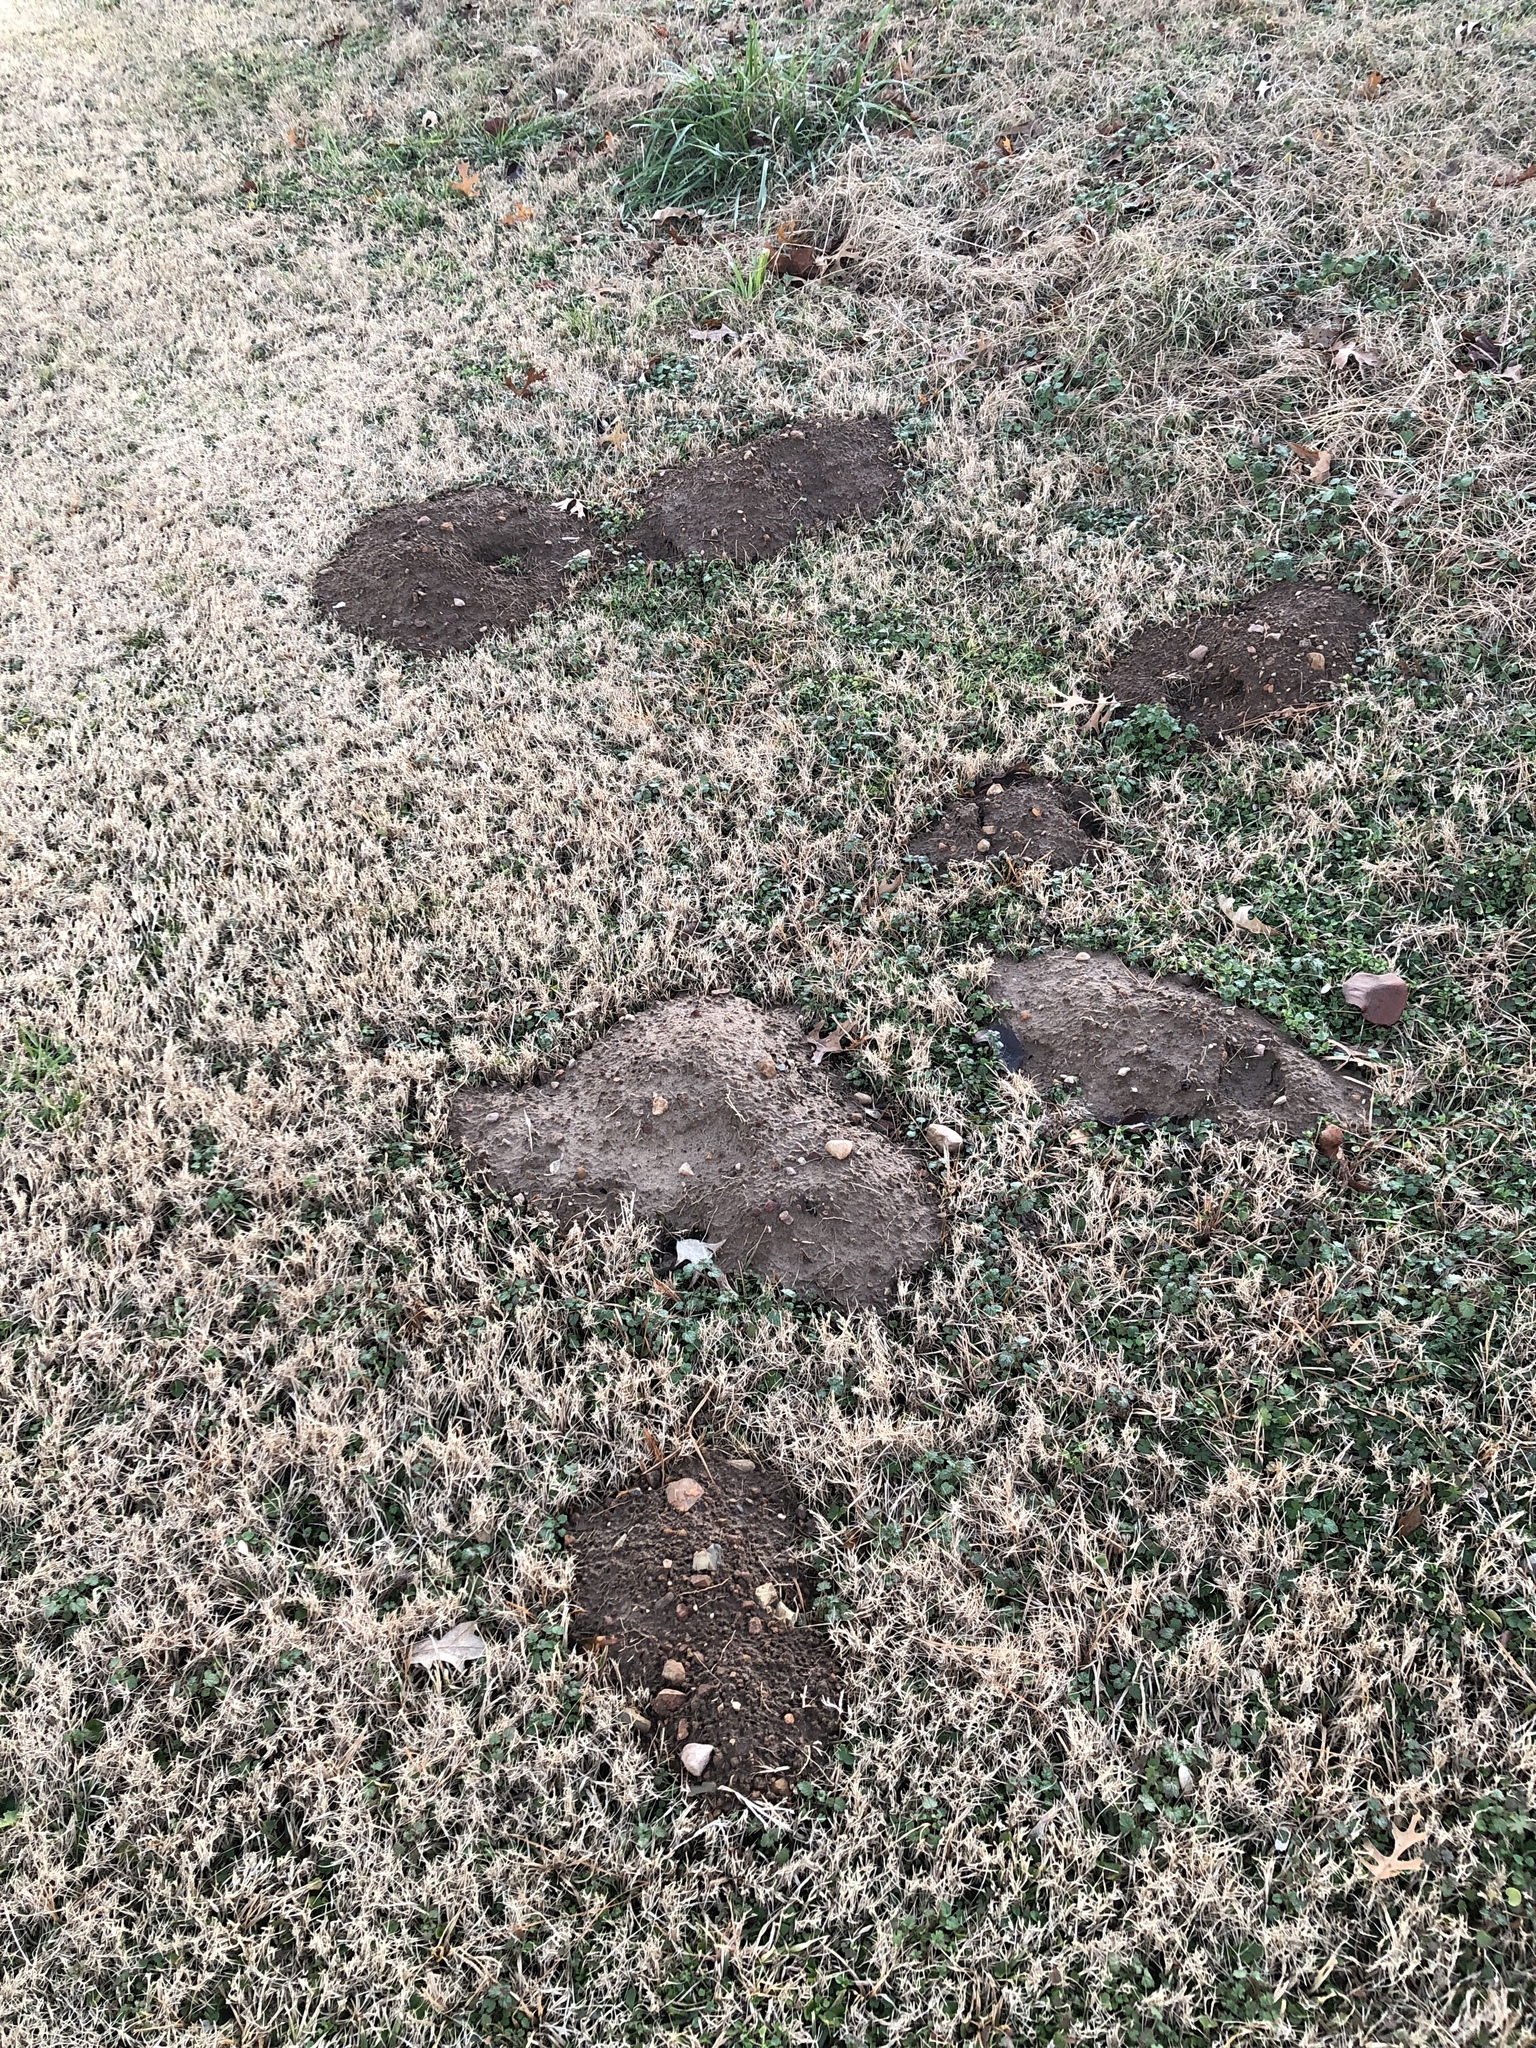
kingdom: Animalia
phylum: Chordata
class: Mammalia
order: Rodentia
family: Geomyidae
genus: Geomys
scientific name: Geomys breviceps
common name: Baird's pocket gopher
